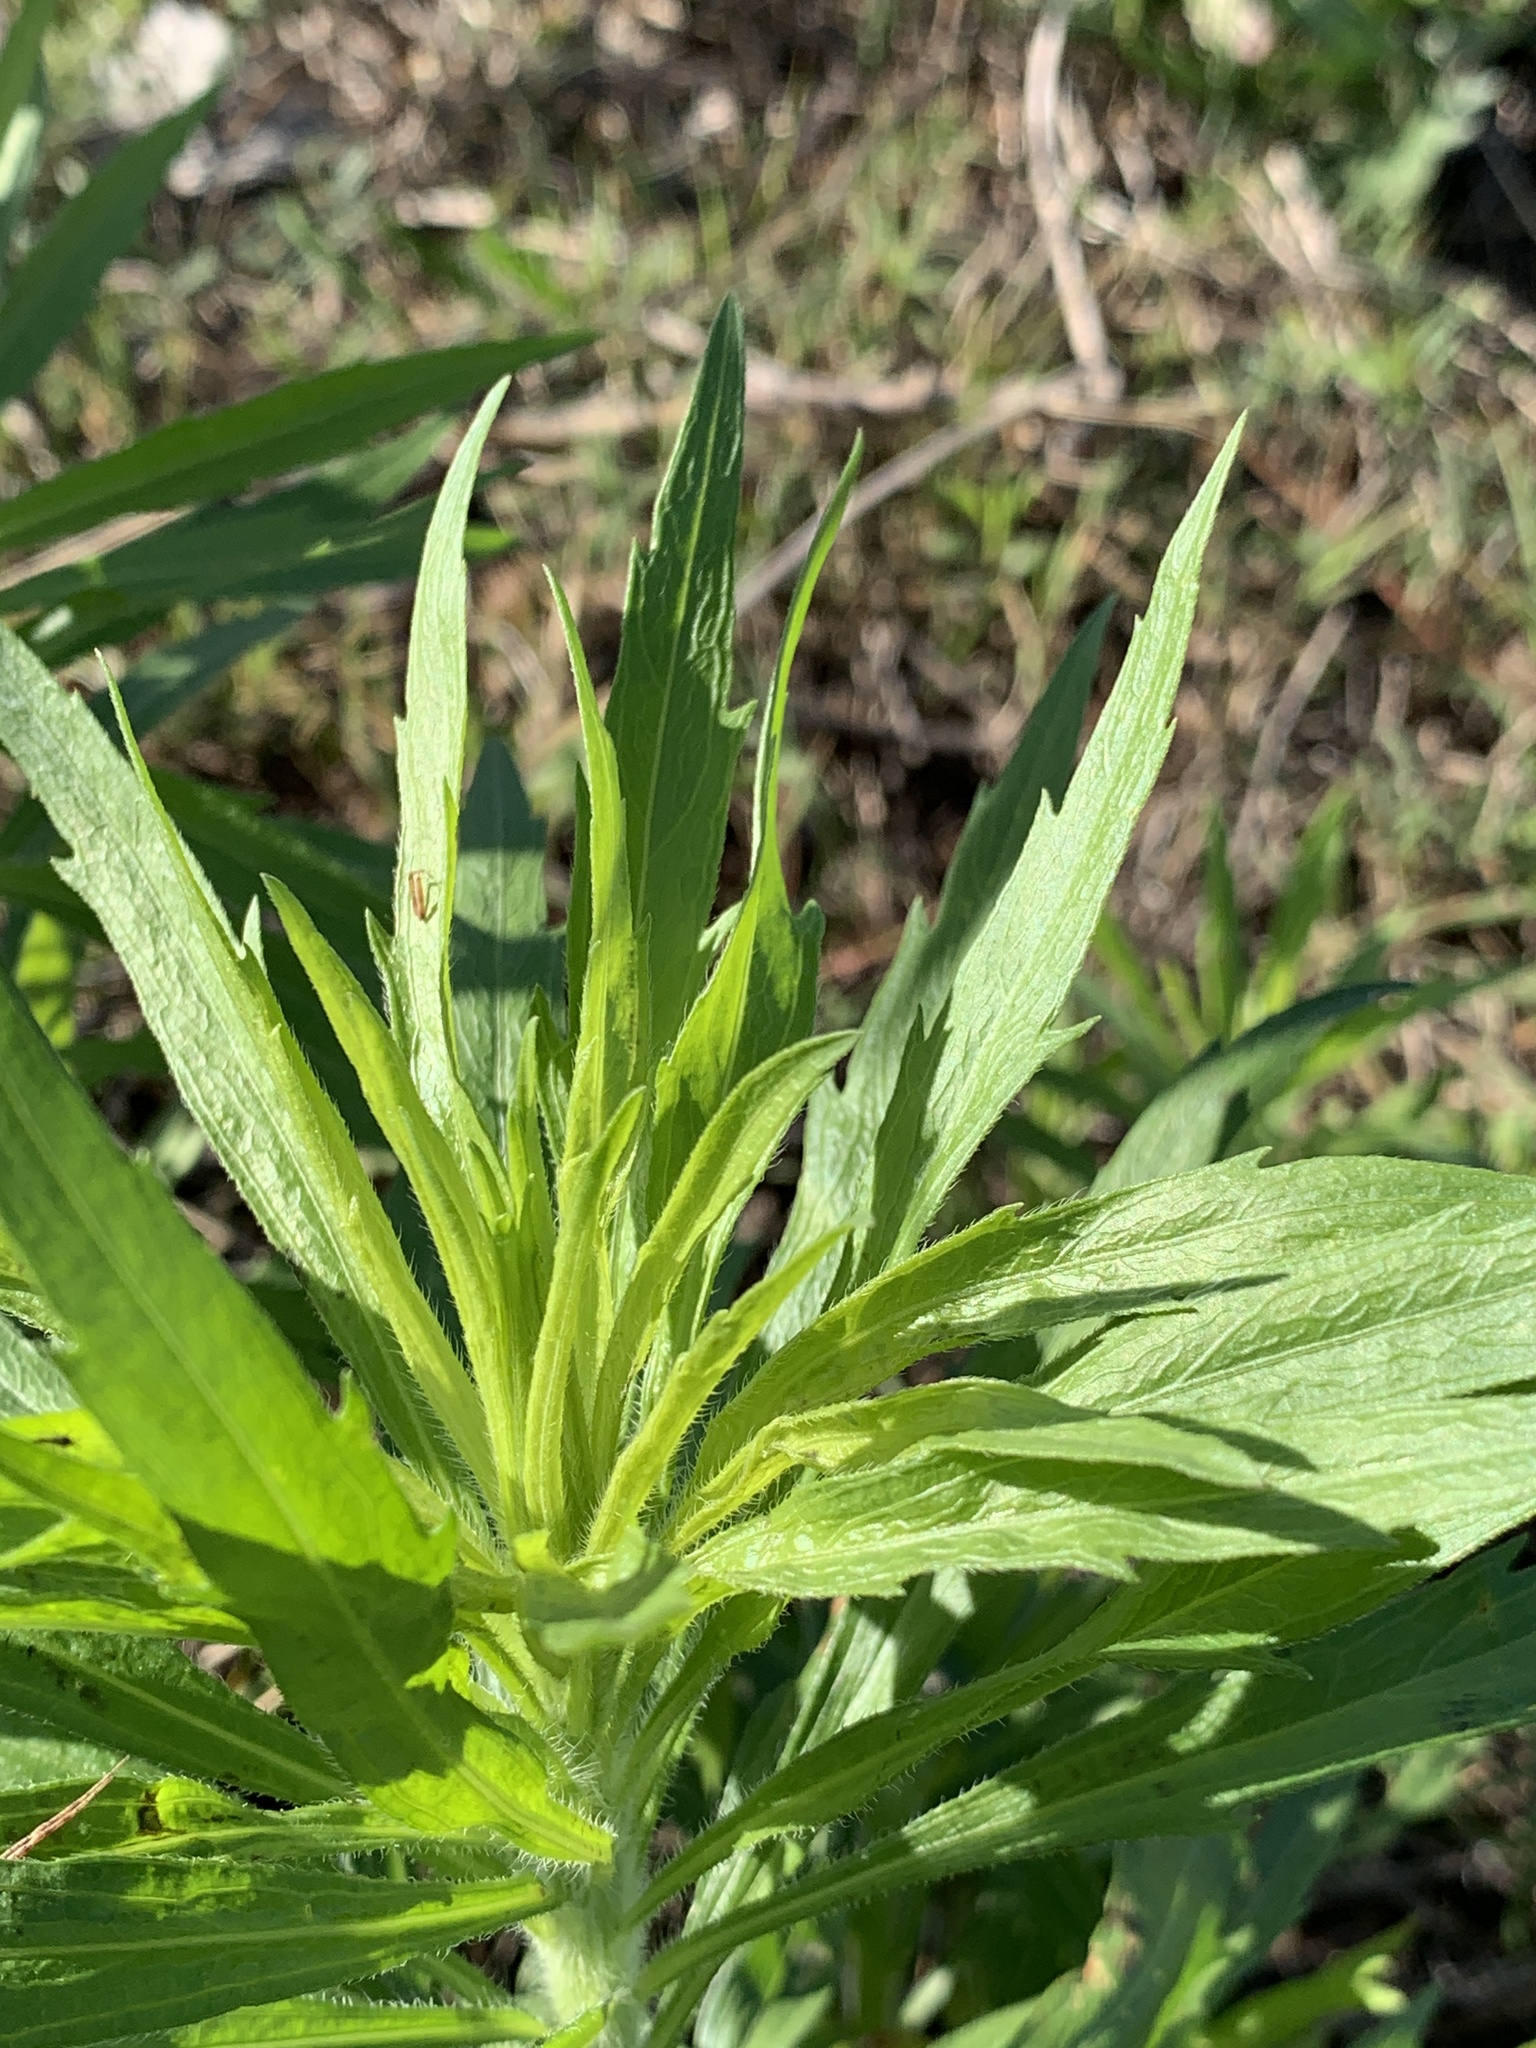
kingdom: Plantae
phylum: Tracheophyta
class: Magnoliopsida
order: Asterales
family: Asteraceae
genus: Baccharis
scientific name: Baccharis neglecta
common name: Roosevelt-weed
